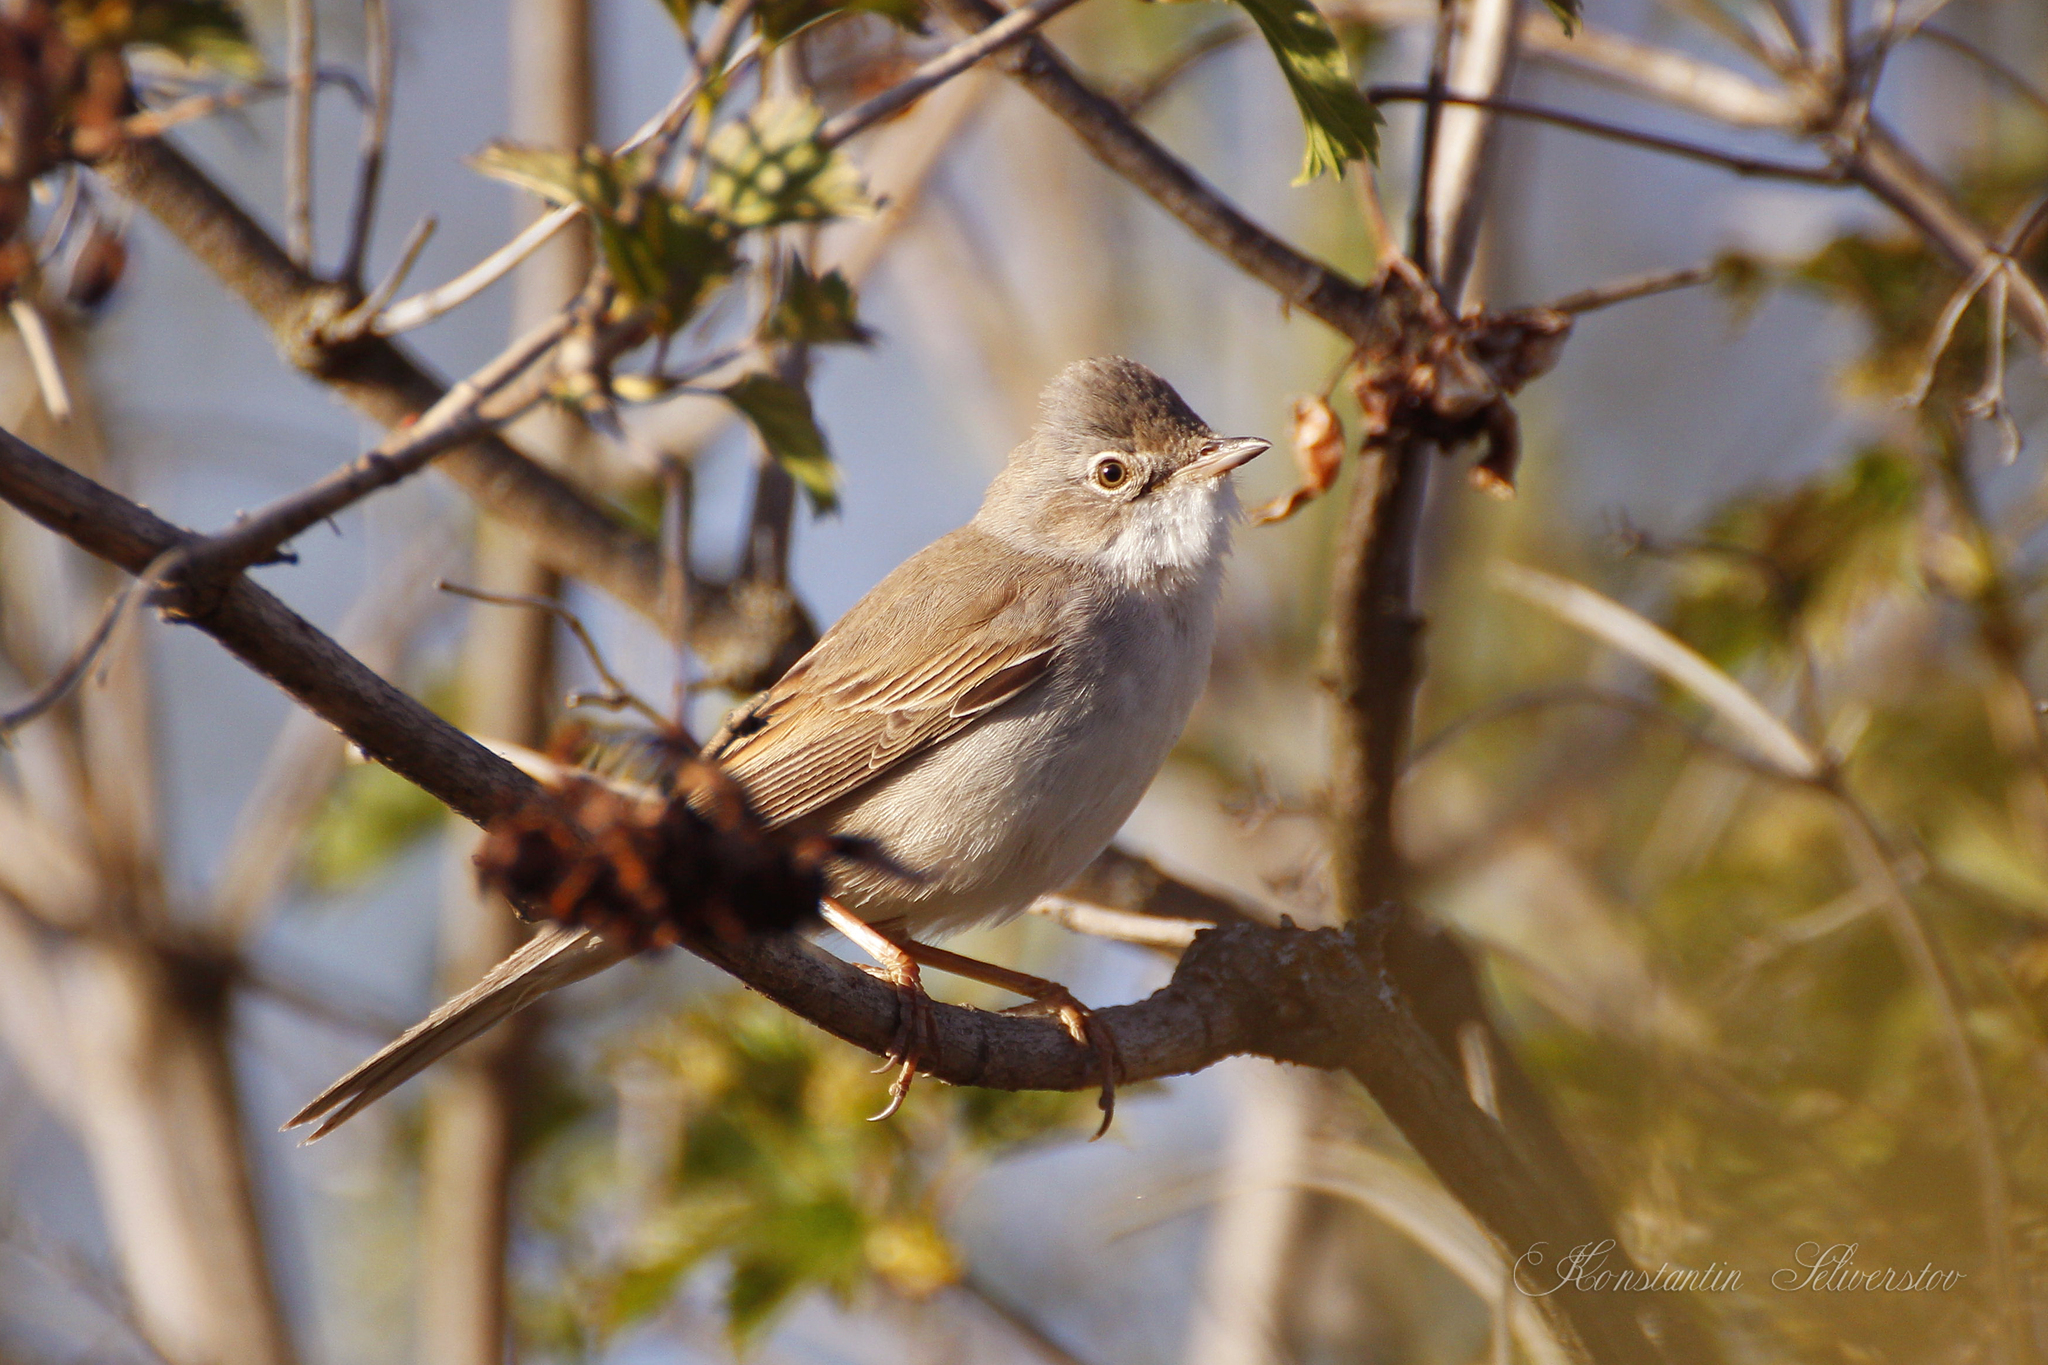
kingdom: Animalia
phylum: Chordata
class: Aves
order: Passeriformes
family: Sylviidae
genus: Sylvia
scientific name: Sylvia communis
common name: Common whitethroat
